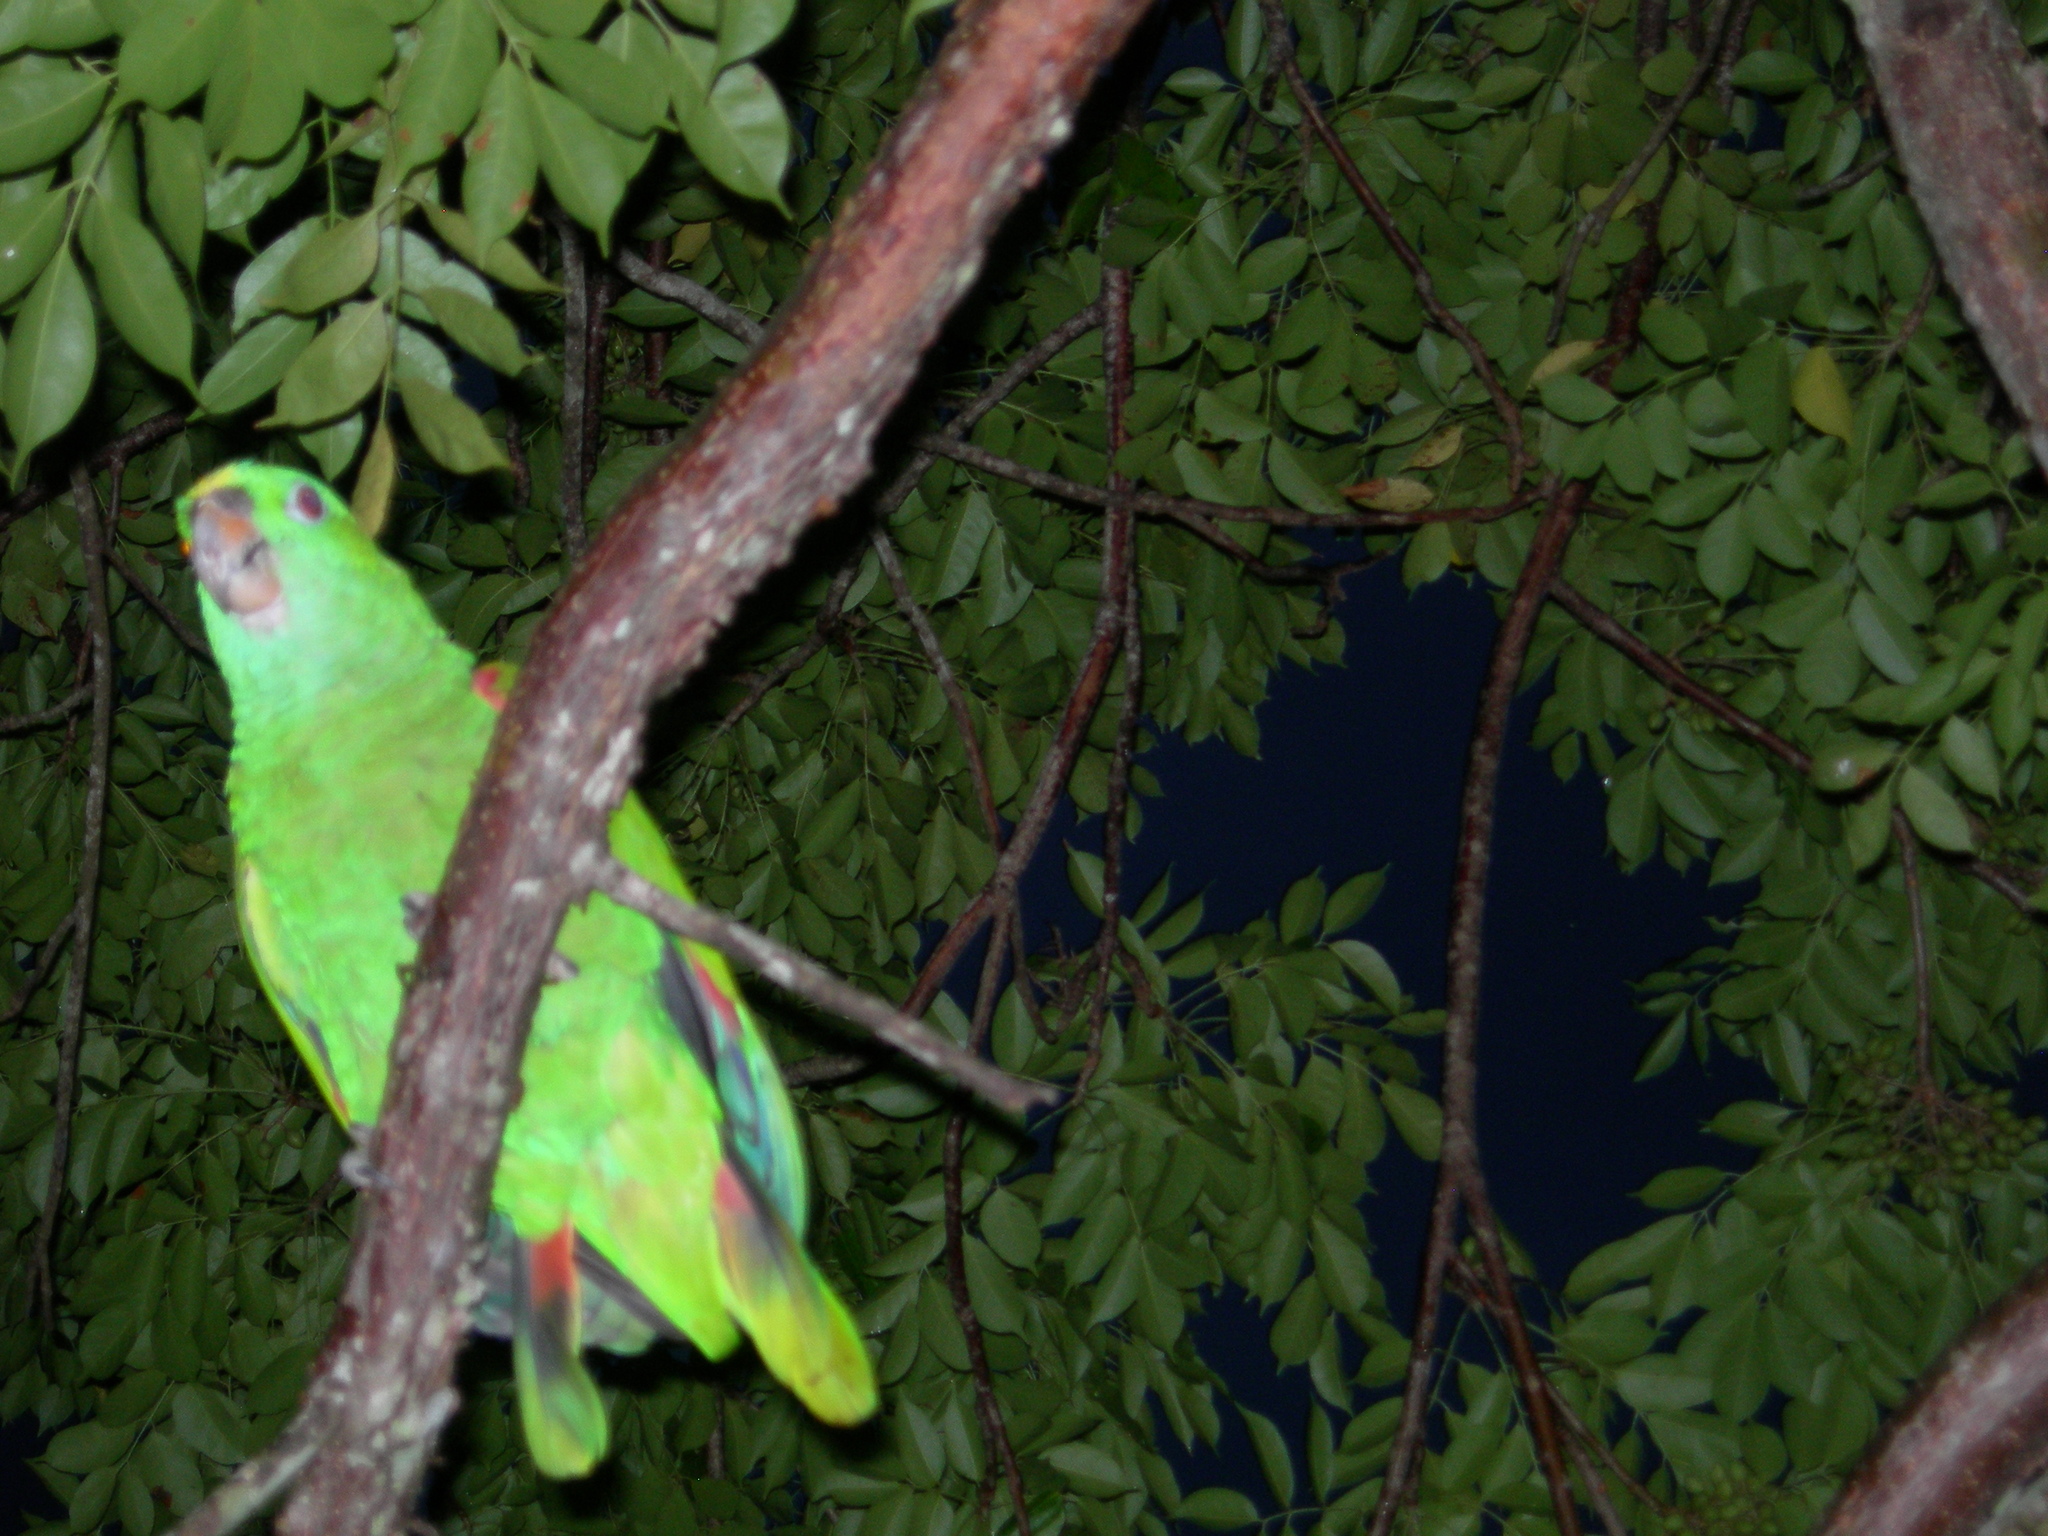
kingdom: Animalia
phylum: Chordata
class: Aves
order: Psittaciformes
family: Psittacidae
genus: Amazona
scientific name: Amazona auropalliata
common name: Yellow-naped amazon
